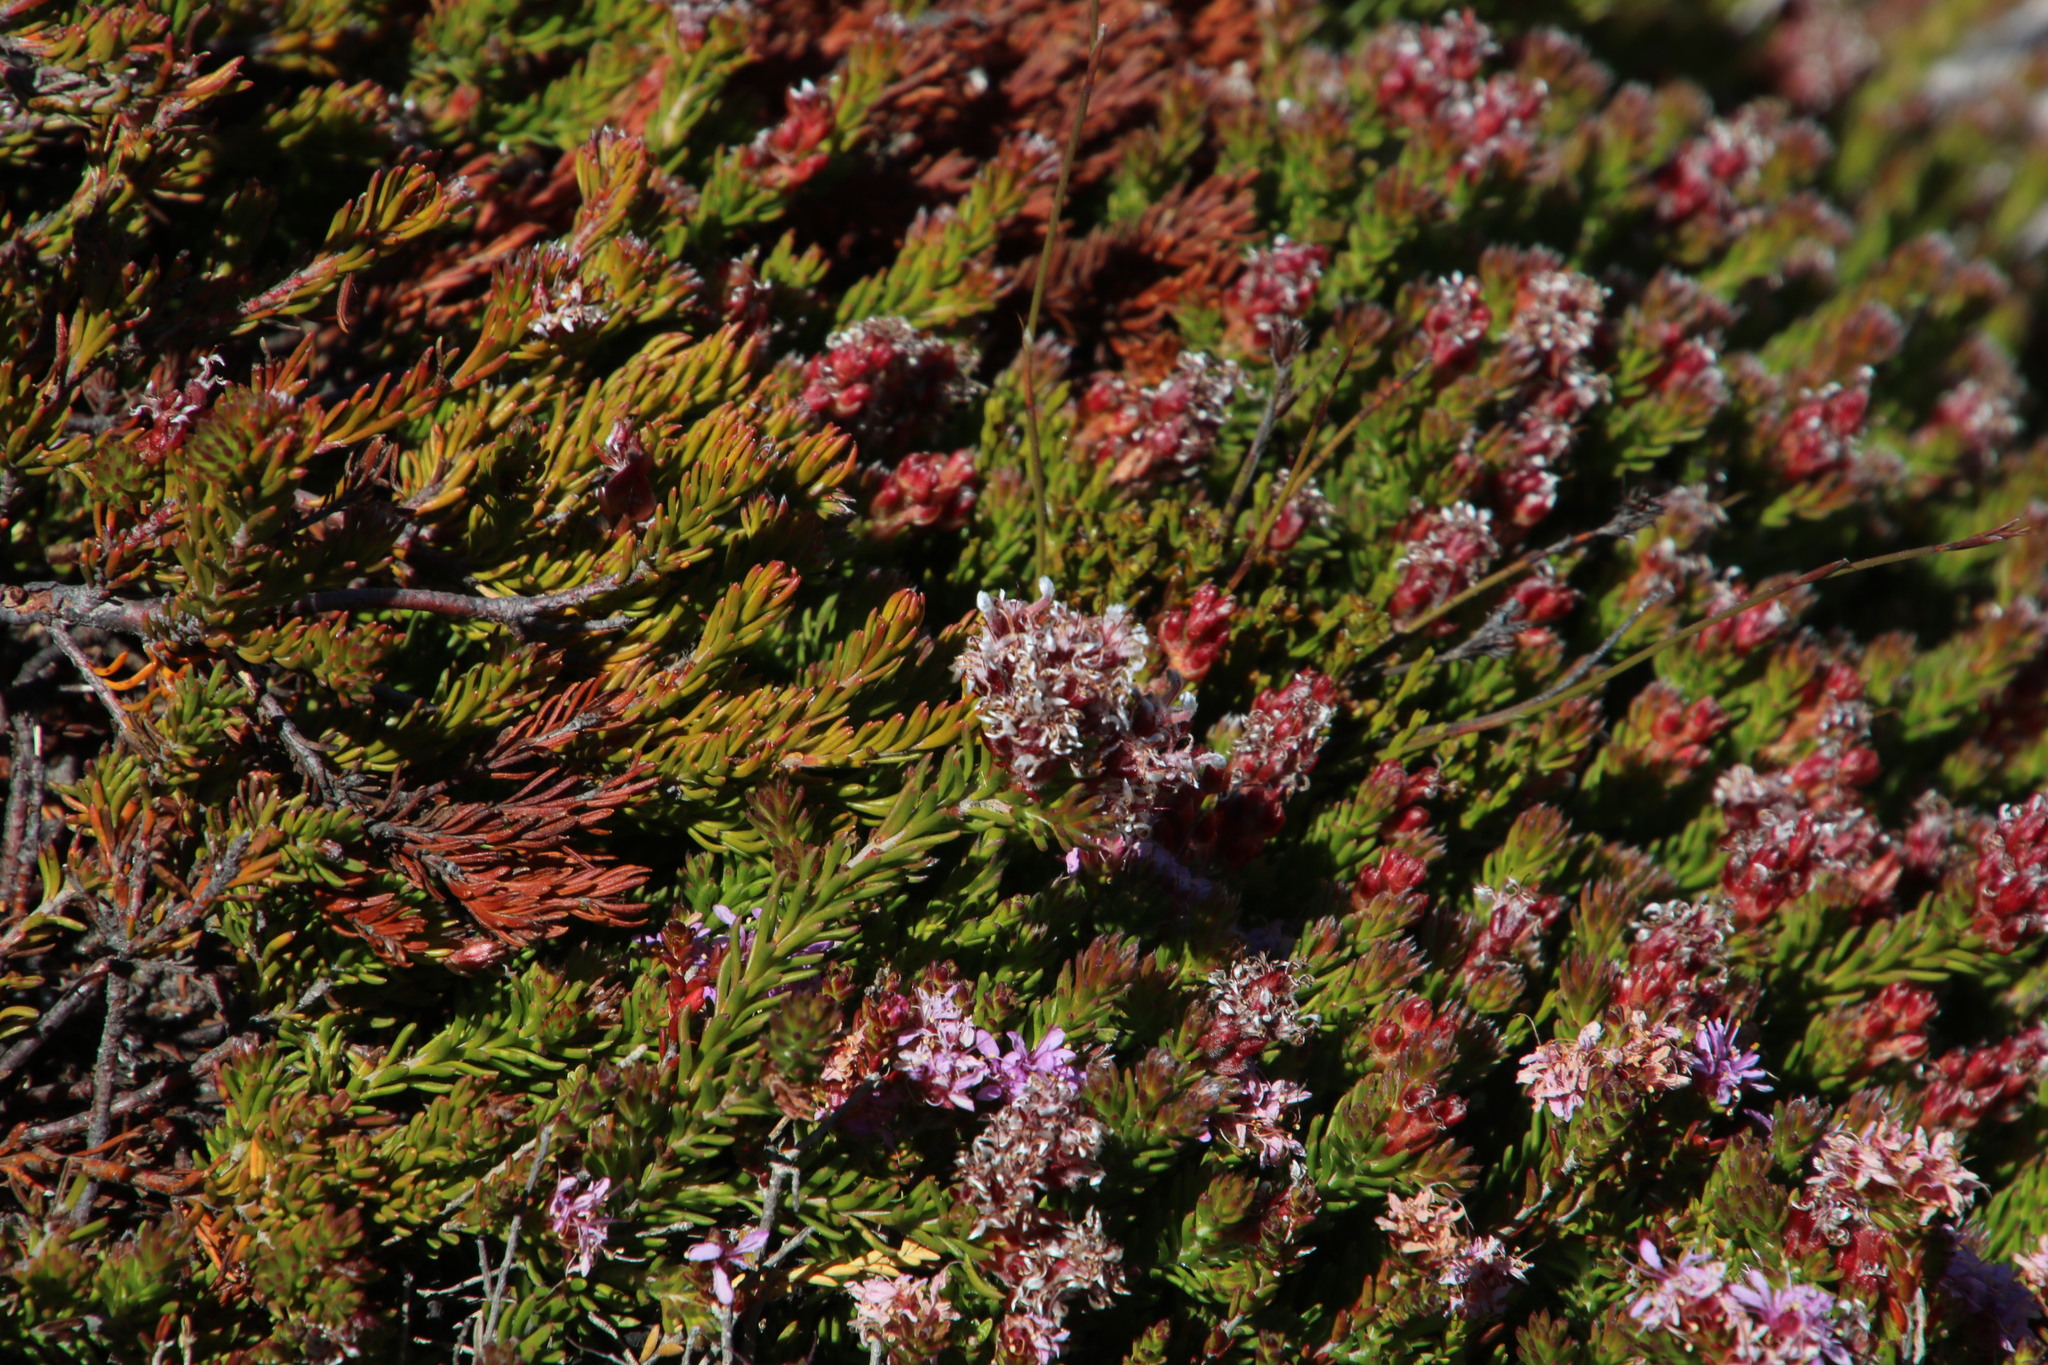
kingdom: Plantae
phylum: Tracheophyta
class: Magnoliopsida
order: Proteales
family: Proteaceae
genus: Spatalla
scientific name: Spatalla confusa
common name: Long-tube spoon
